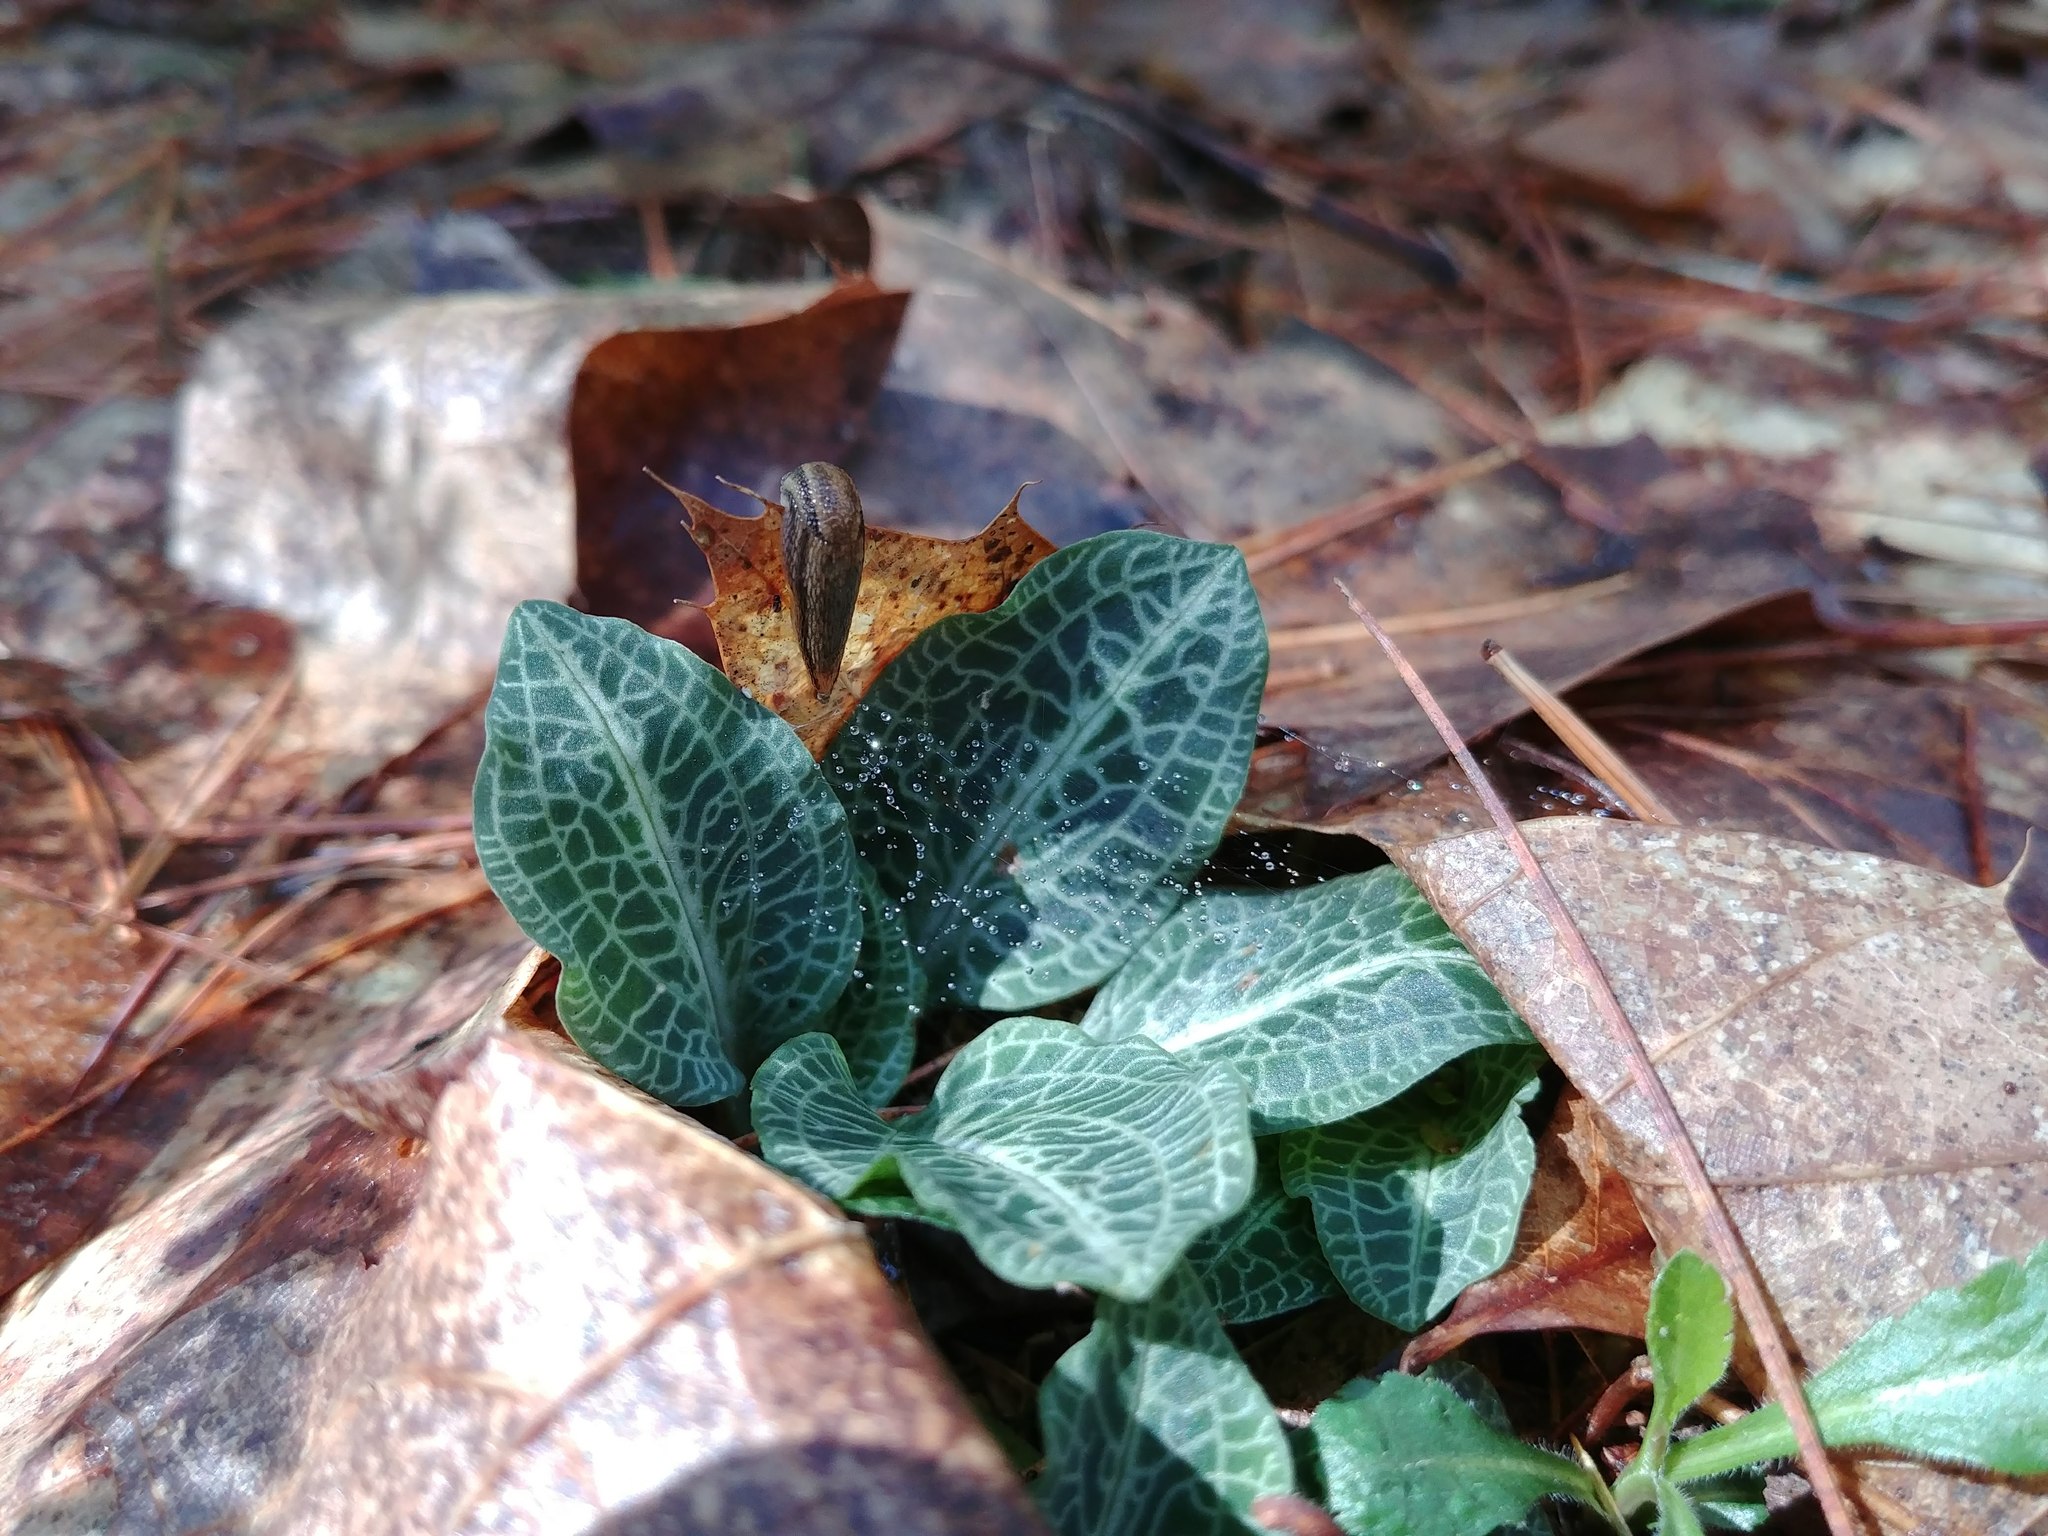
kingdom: Plantae
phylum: Tracheophyta
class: Liliopsida
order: Asparagales
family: Orchidaceae
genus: Goodyera
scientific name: Goodyera pubescens
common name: Downy rattlesnake-plantain
